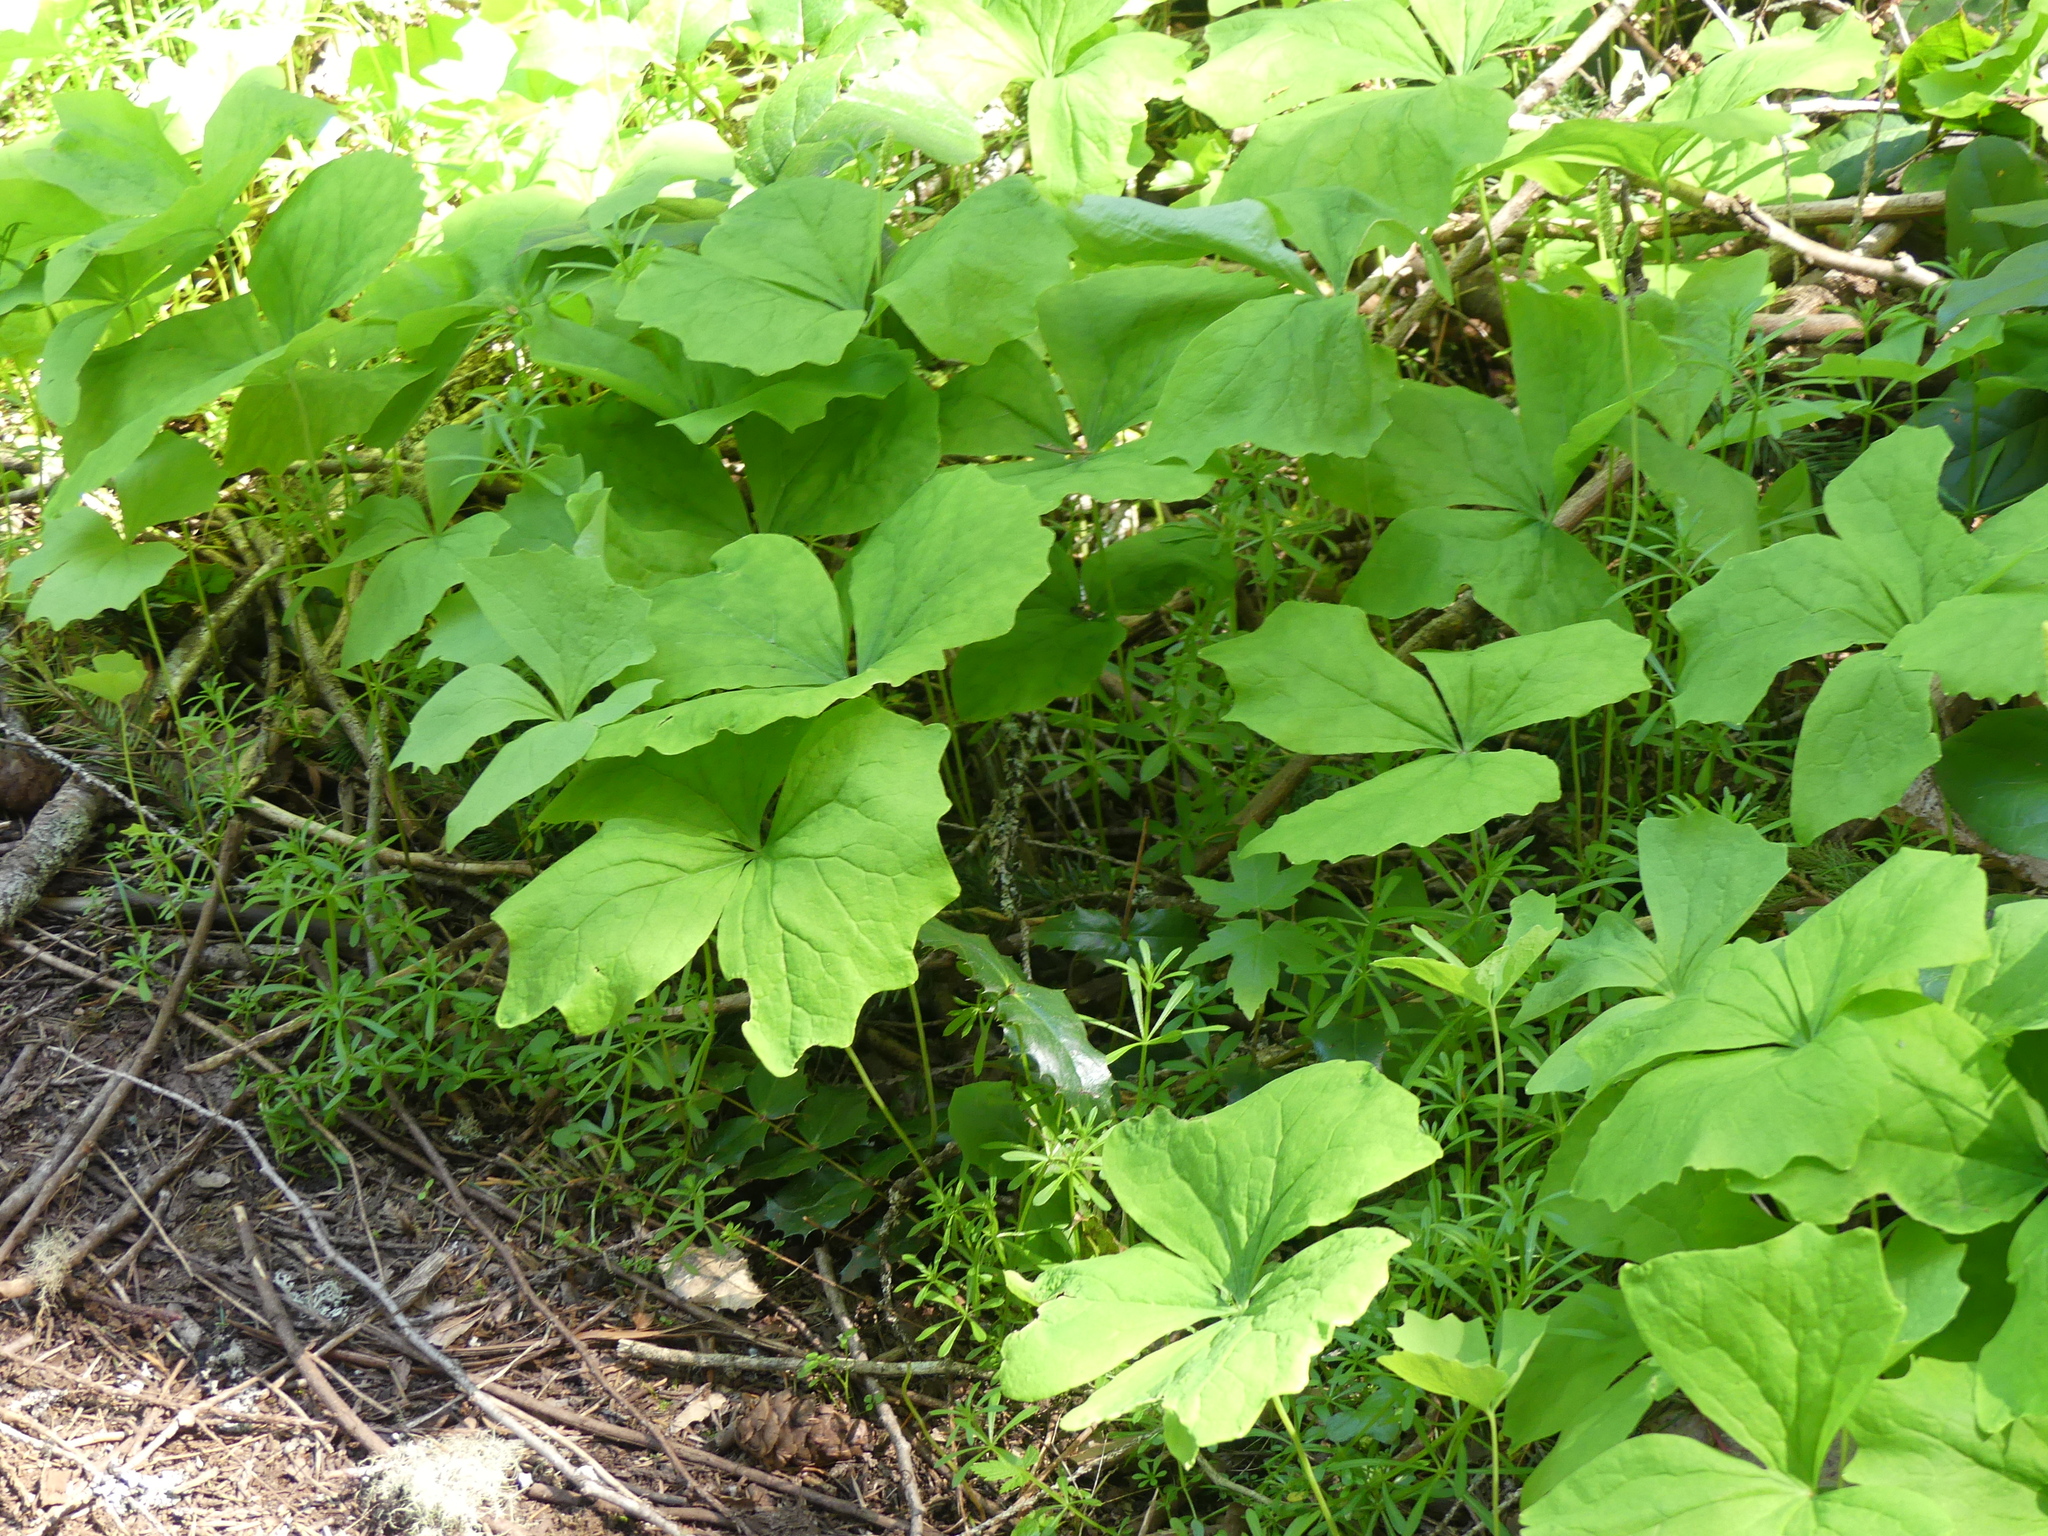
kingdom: Plantae
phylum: Tracheophyta
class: Magnoliopsida
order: Ranunculales
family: Berberidaceae
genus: Achlys
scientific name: Achlys triphylla
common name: Vanilla-leaf
